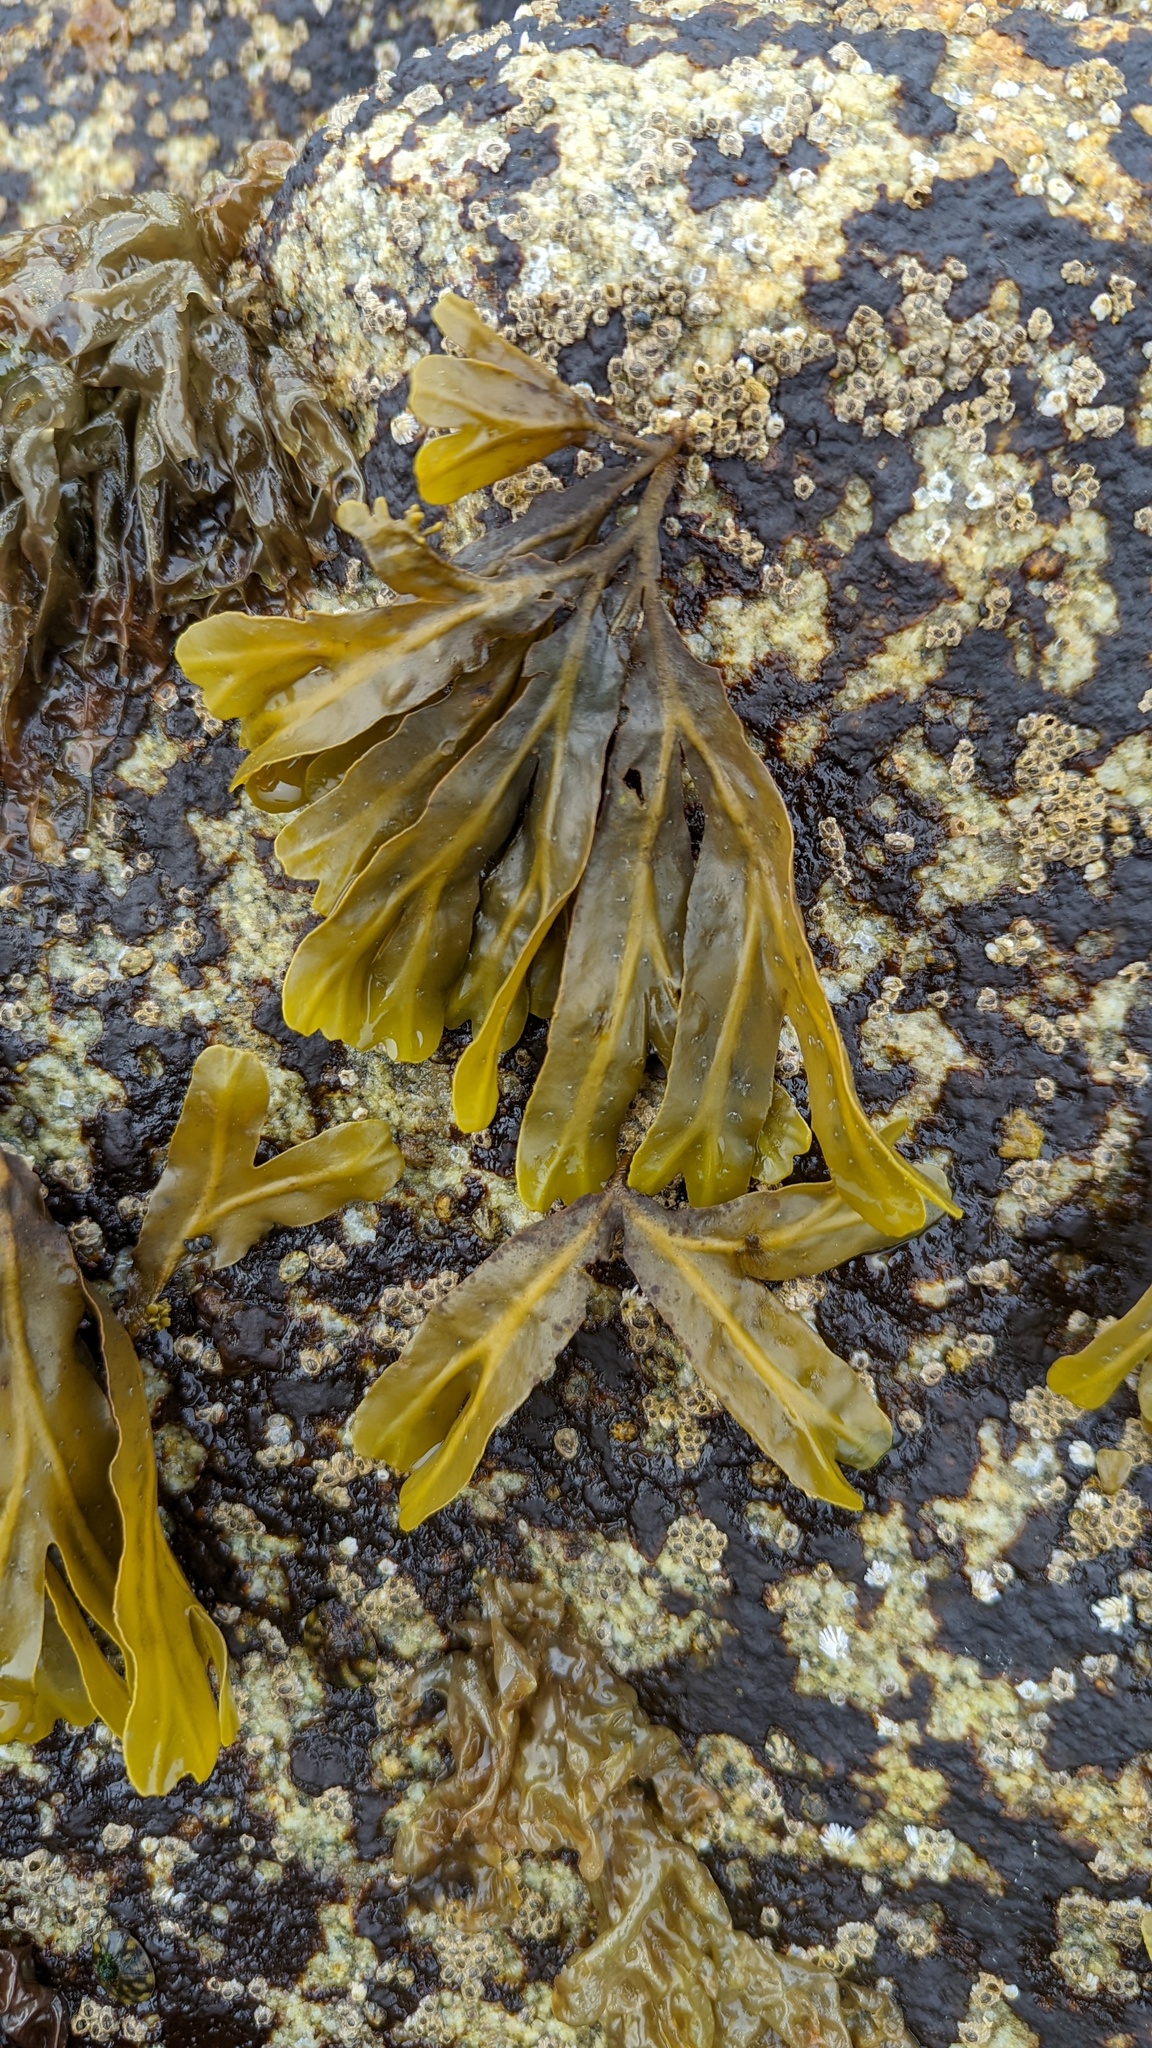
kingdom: Chromista
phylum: Ochrophyta
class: Phaeophyceae
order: Fucales
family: Fucaceae
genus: Fucus
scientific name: Fucus distichus
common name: Rockweed
